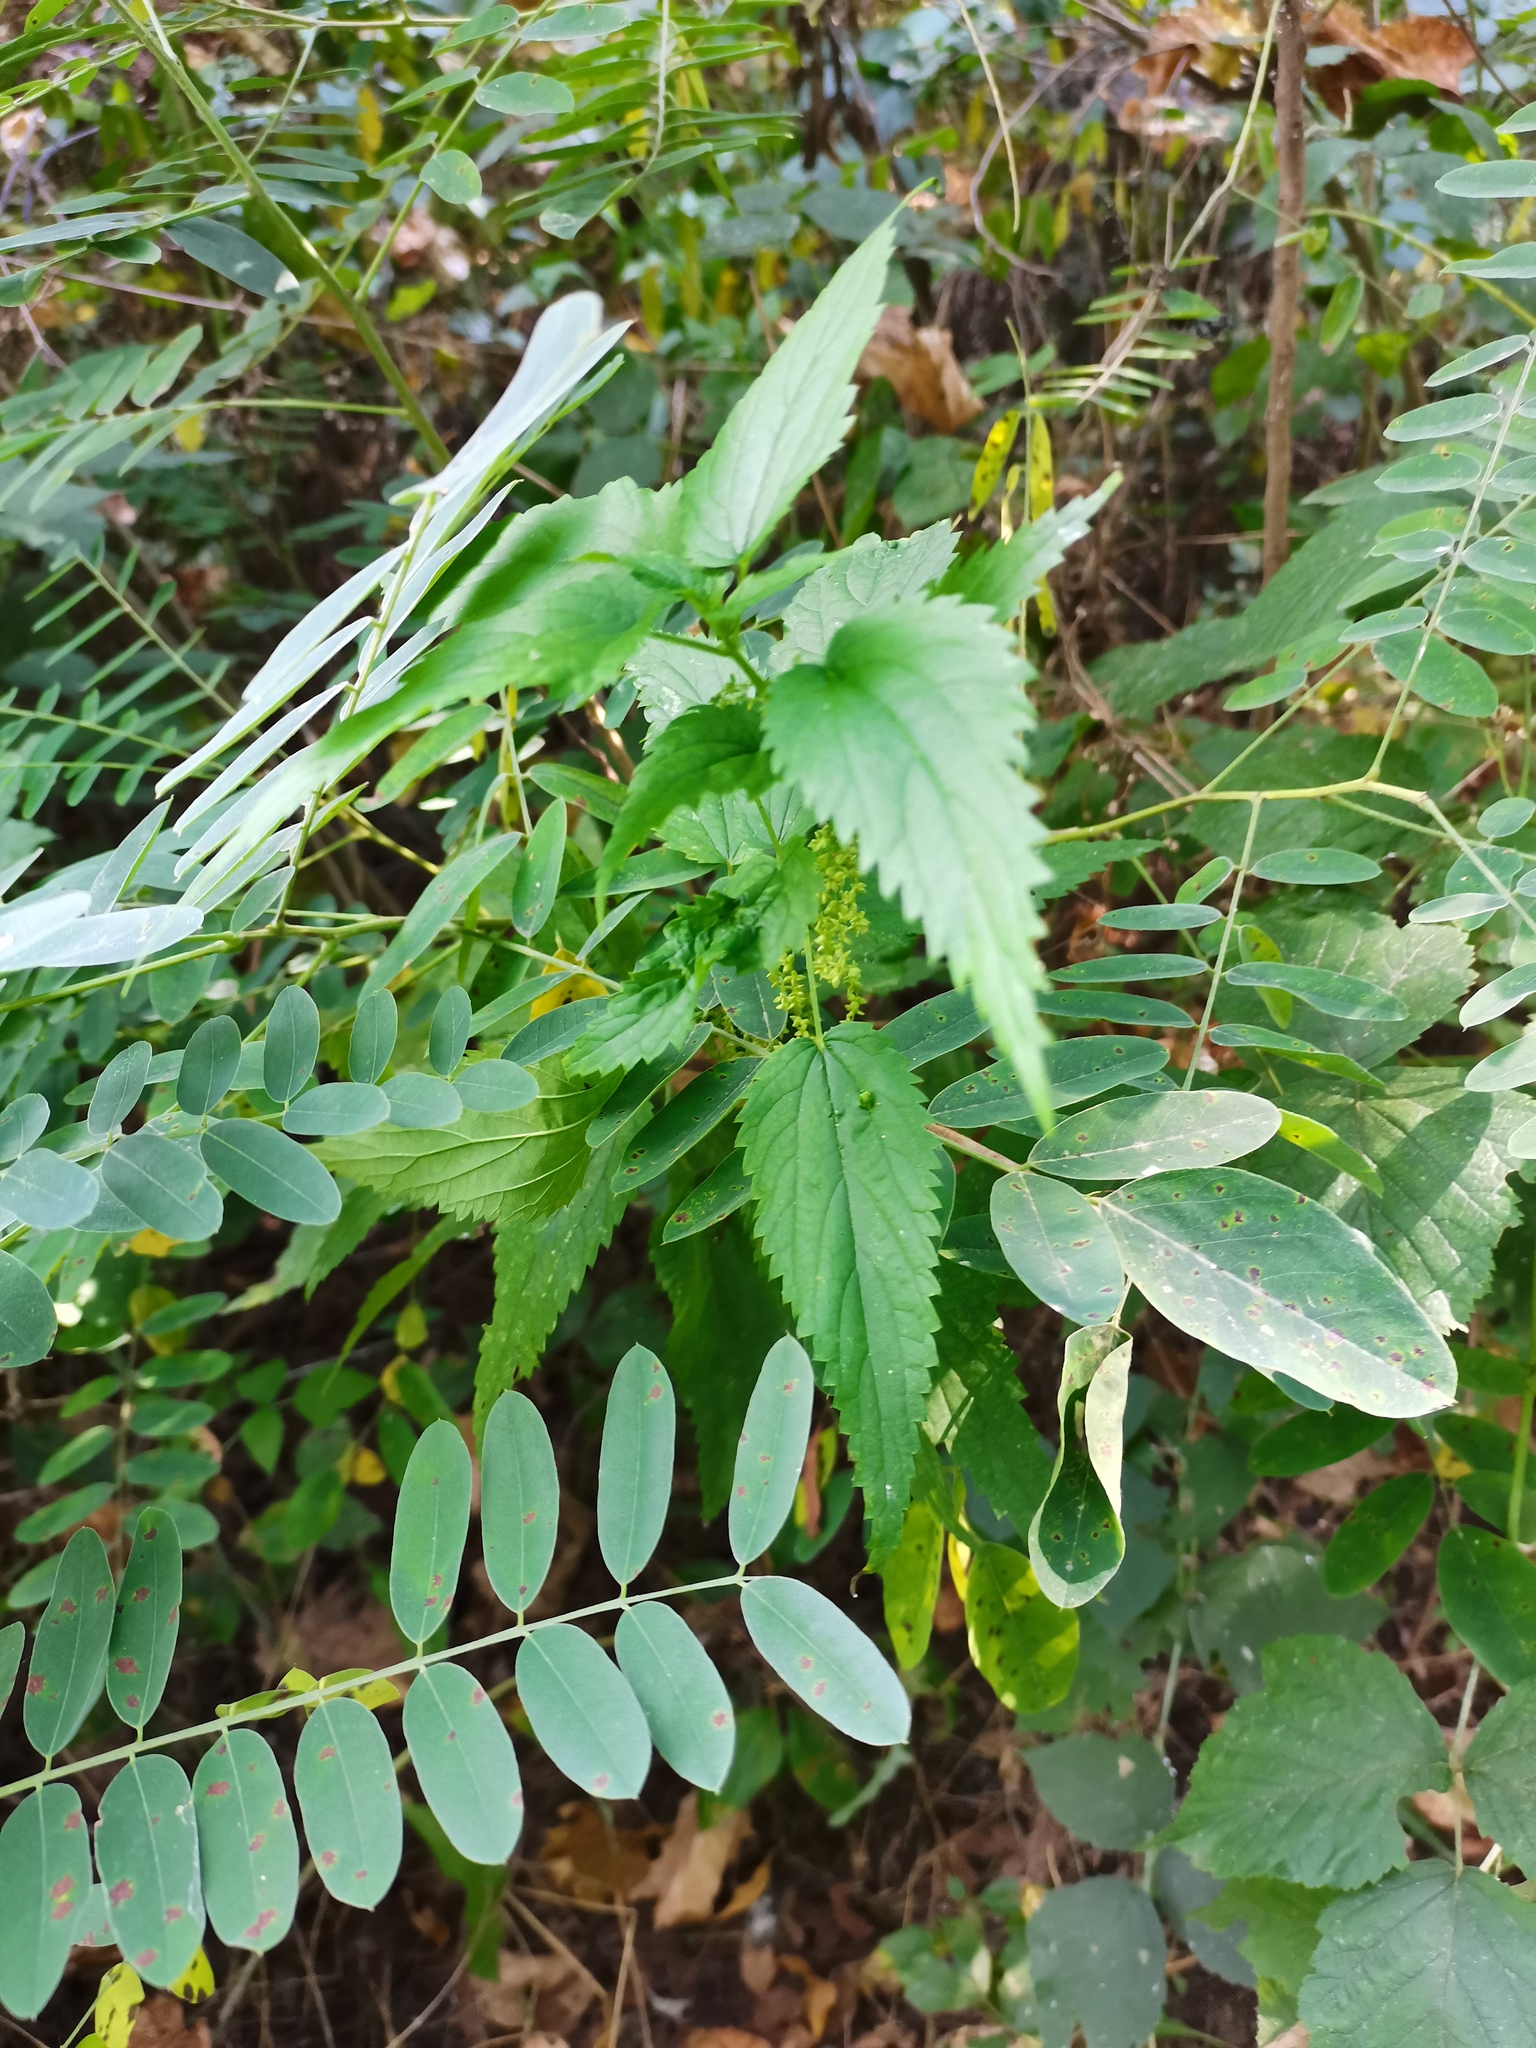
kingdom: Plantae
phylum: Tracheophyta
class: Magnoliopsida
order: Rosales
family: Urticaceae
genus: Urtica
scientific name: Urtica dioica
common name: Common nettle
